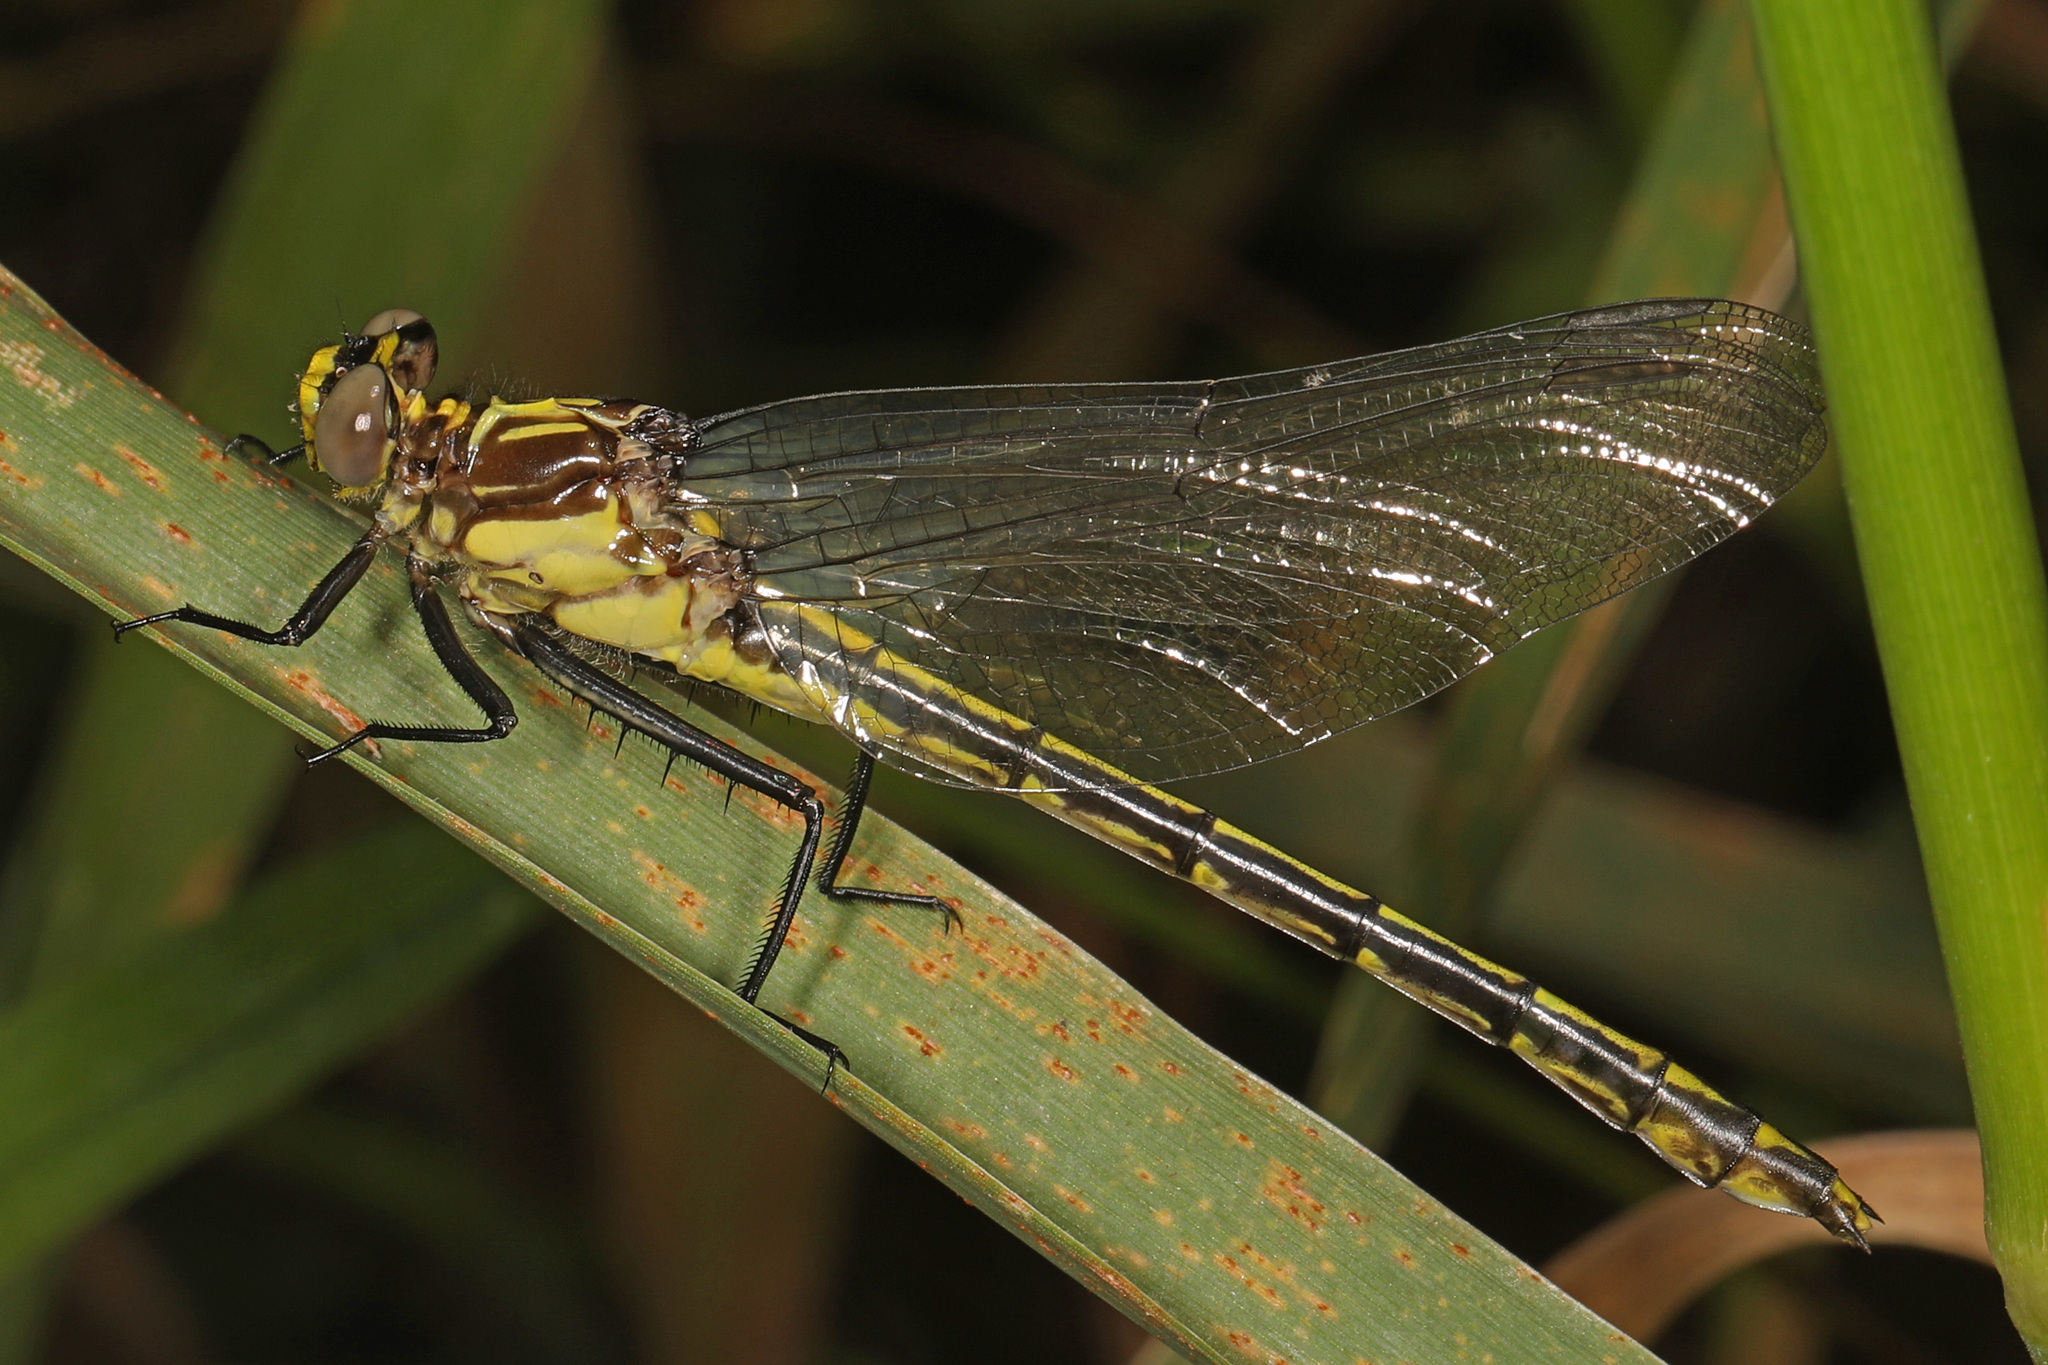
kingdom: Animalia
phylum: Arthropoda
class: Insecta
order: Odonata
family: Gomphidae
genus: Dromogomphus
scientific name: Dromogomphus spinosus
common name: Black-shouldered spinyleg
